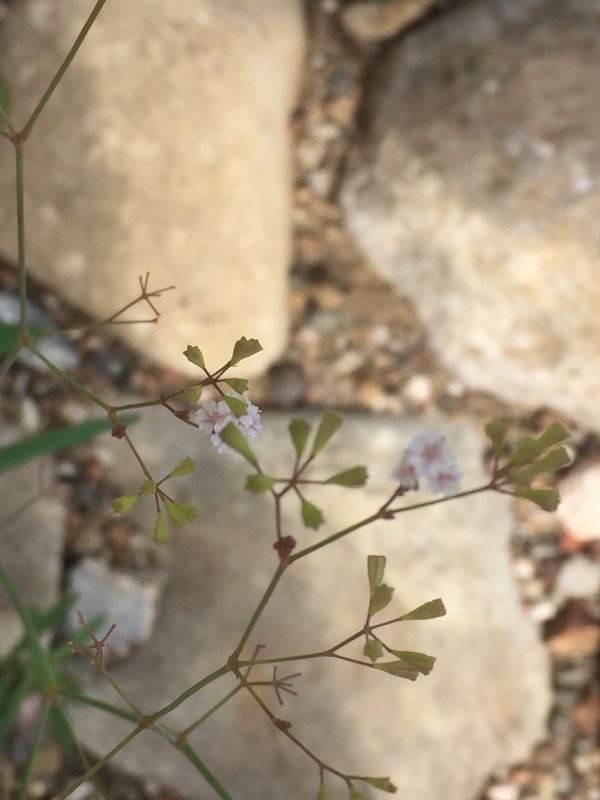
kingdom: Plantae
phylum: Tracheophyta
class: Magnoliopsida
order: Caryophyllales
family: Nyctaginaceae
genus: Boerhavia
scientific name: Boerhavia erecta
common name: Erect spiderling
